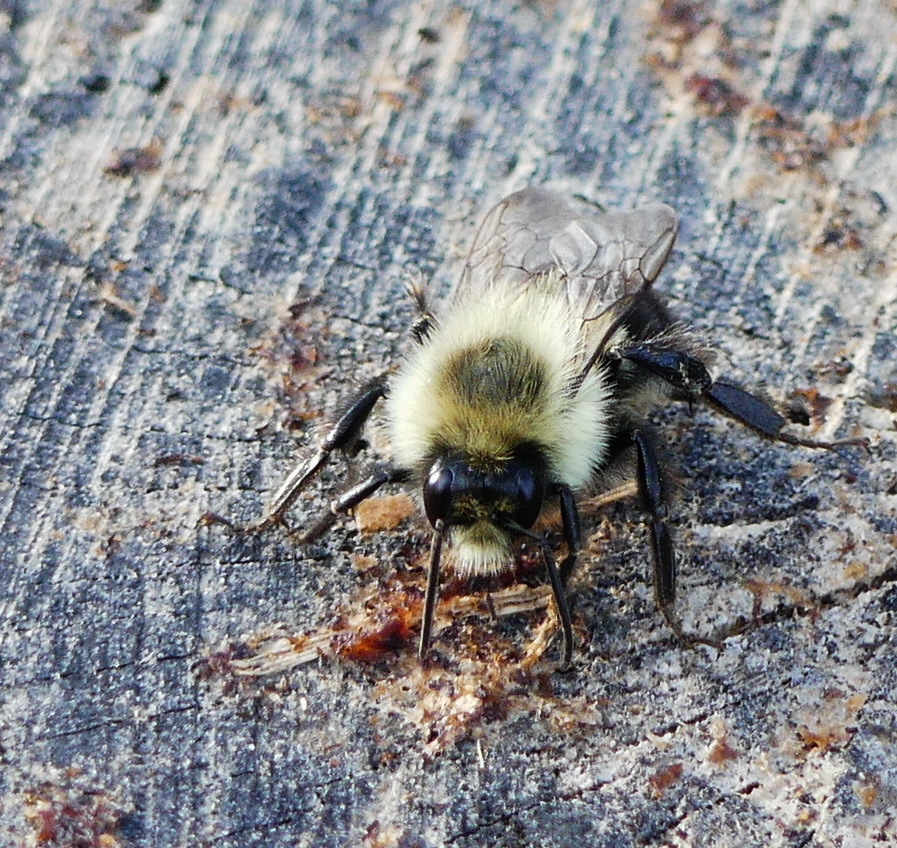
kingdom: Animalia
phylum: Arthropoda
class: Insecta
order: Hymenoptera
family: Apidae
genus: Bombus
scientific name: Bombus impatiens
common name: Common eastern bumble bee
